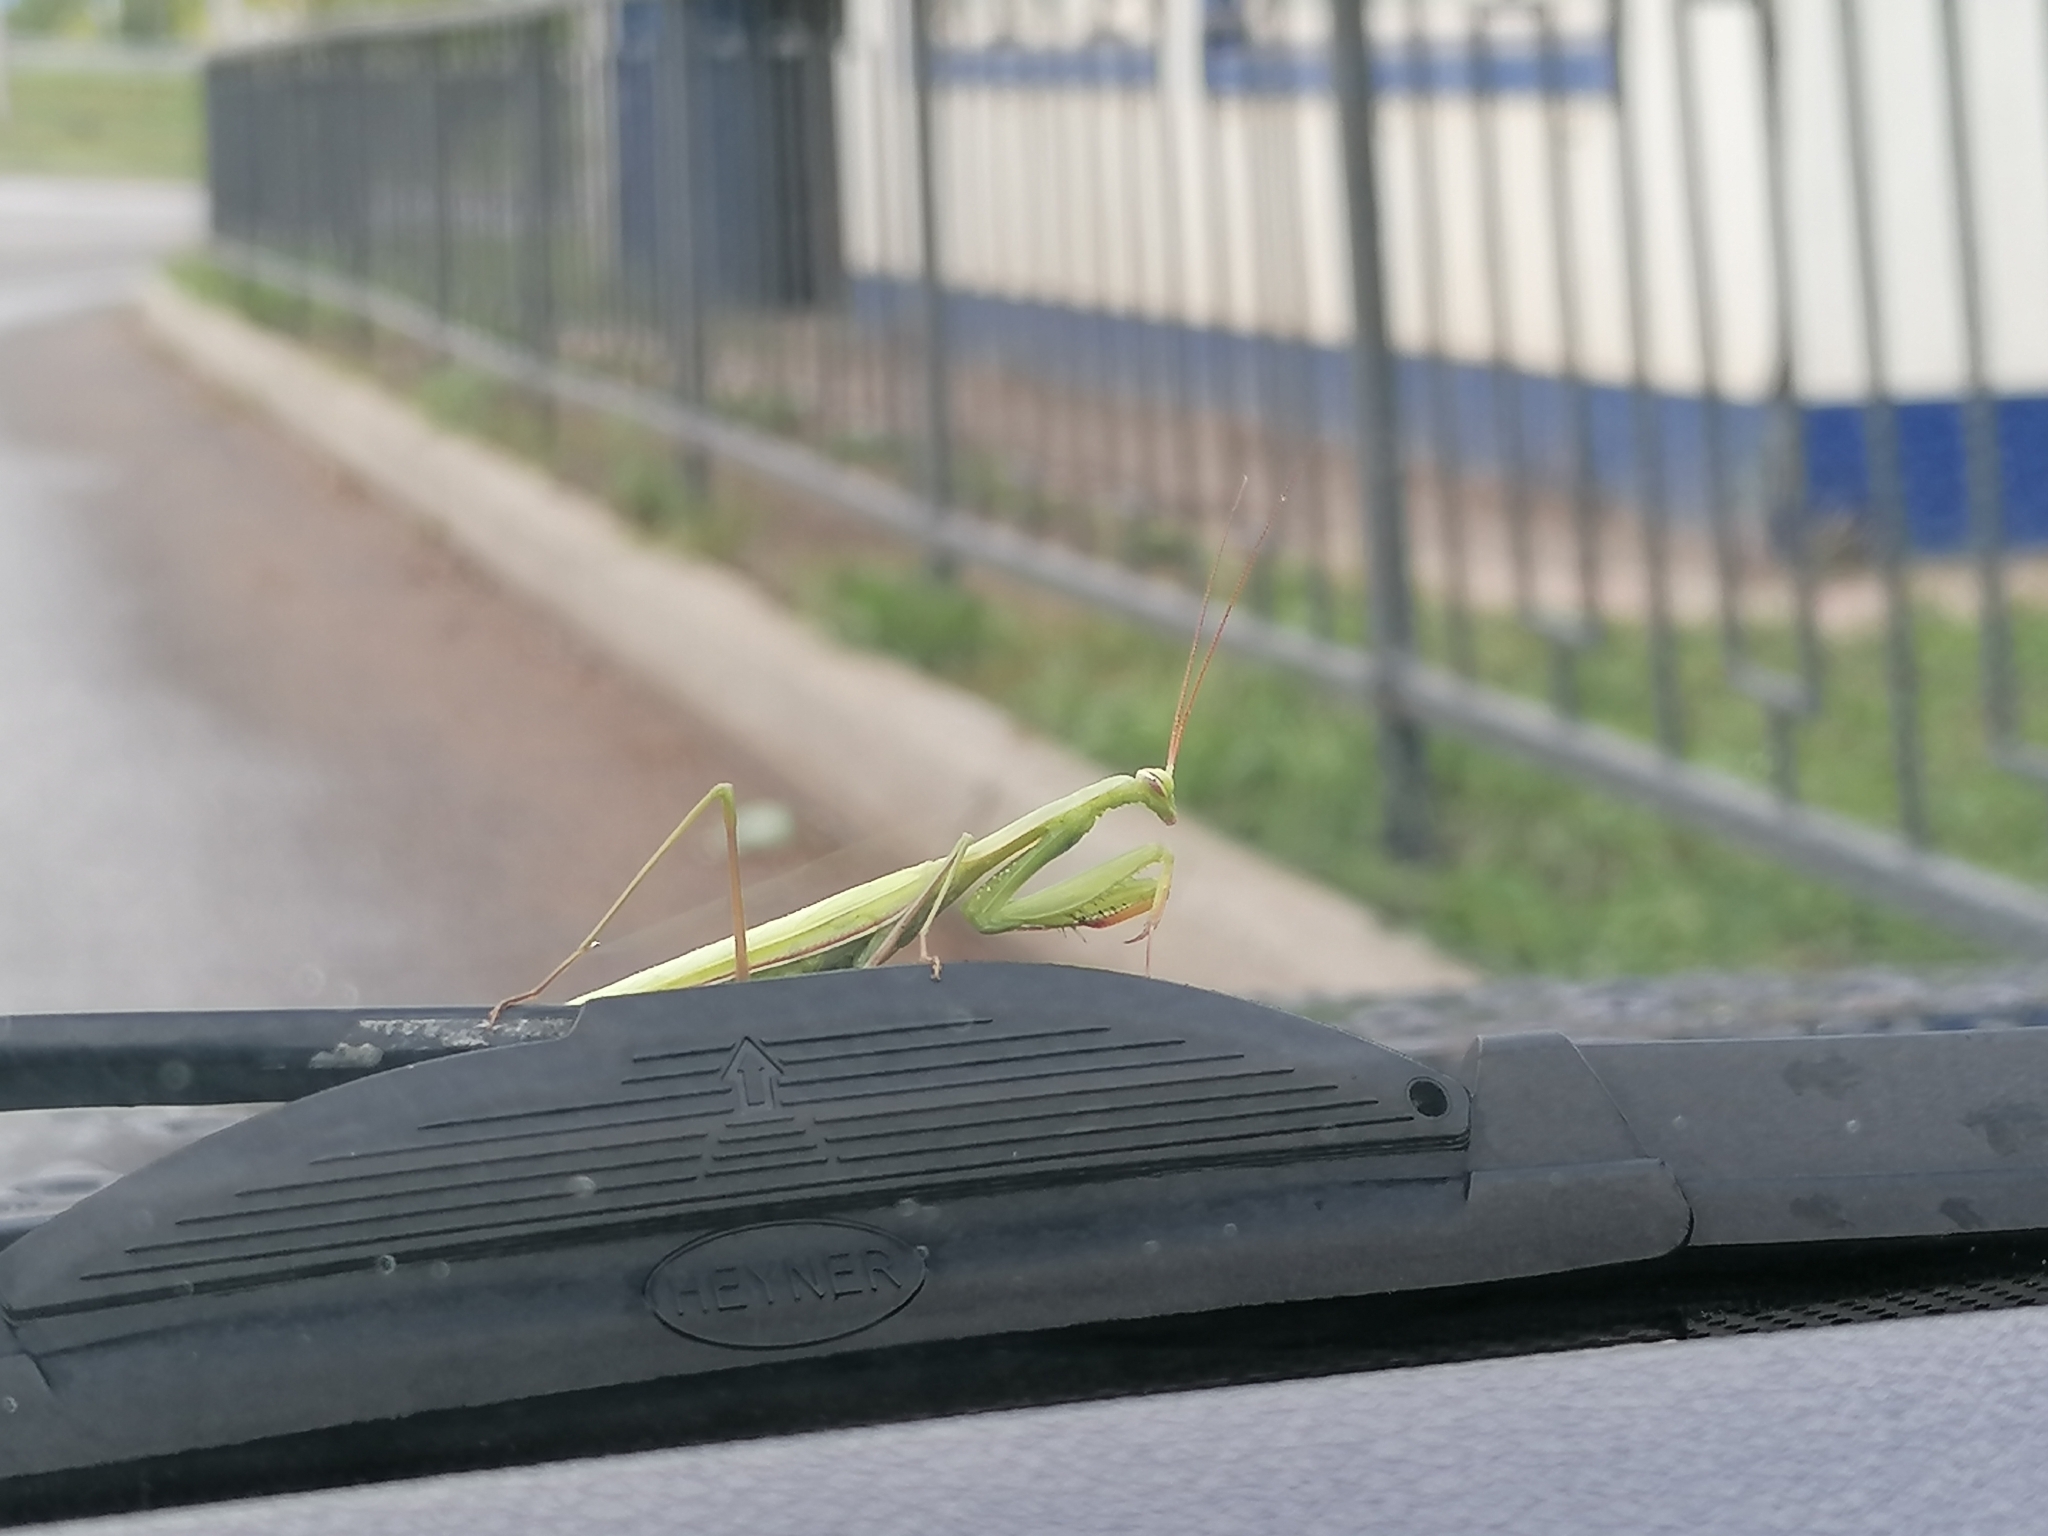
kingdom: Animalia
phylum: Arthropoda
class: Insecta
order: Mantodea
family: Mantidae
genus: Mantis
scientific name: Mantis religiosa
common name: Praying mantis
